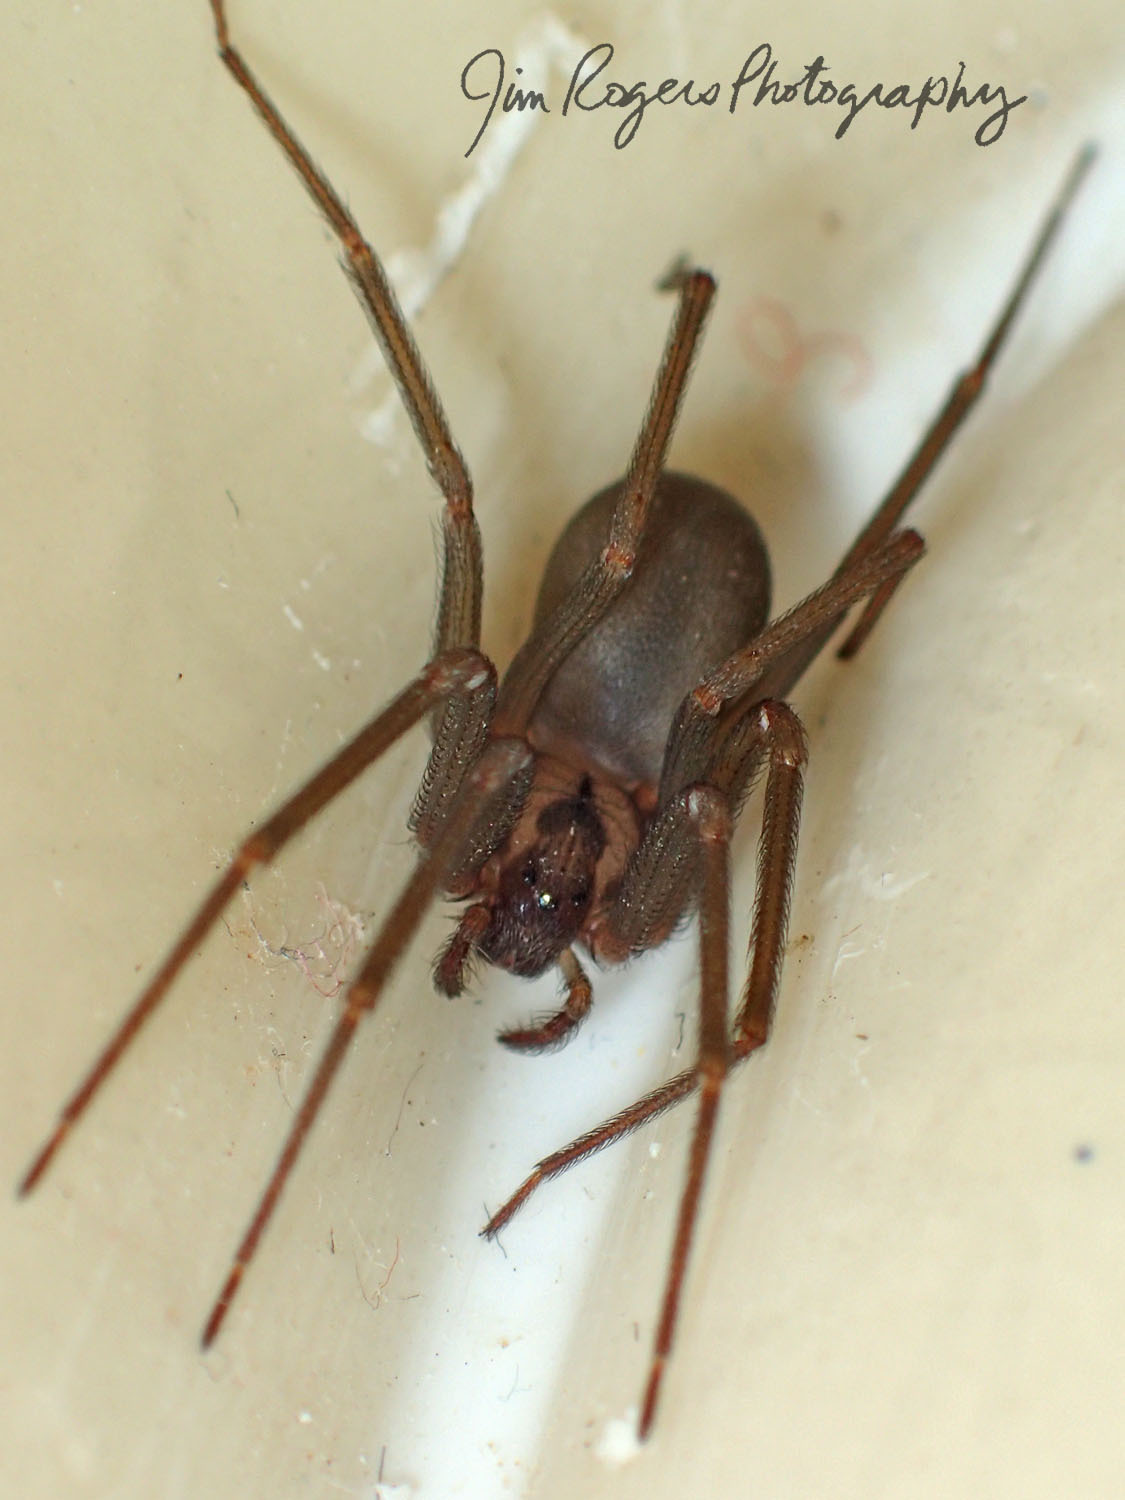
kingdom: Animalia
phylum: Arthropoda
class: Arachnida
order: Araneae
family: Sicariidae
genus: Loxosceles
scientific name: Loxosceles reclusa
